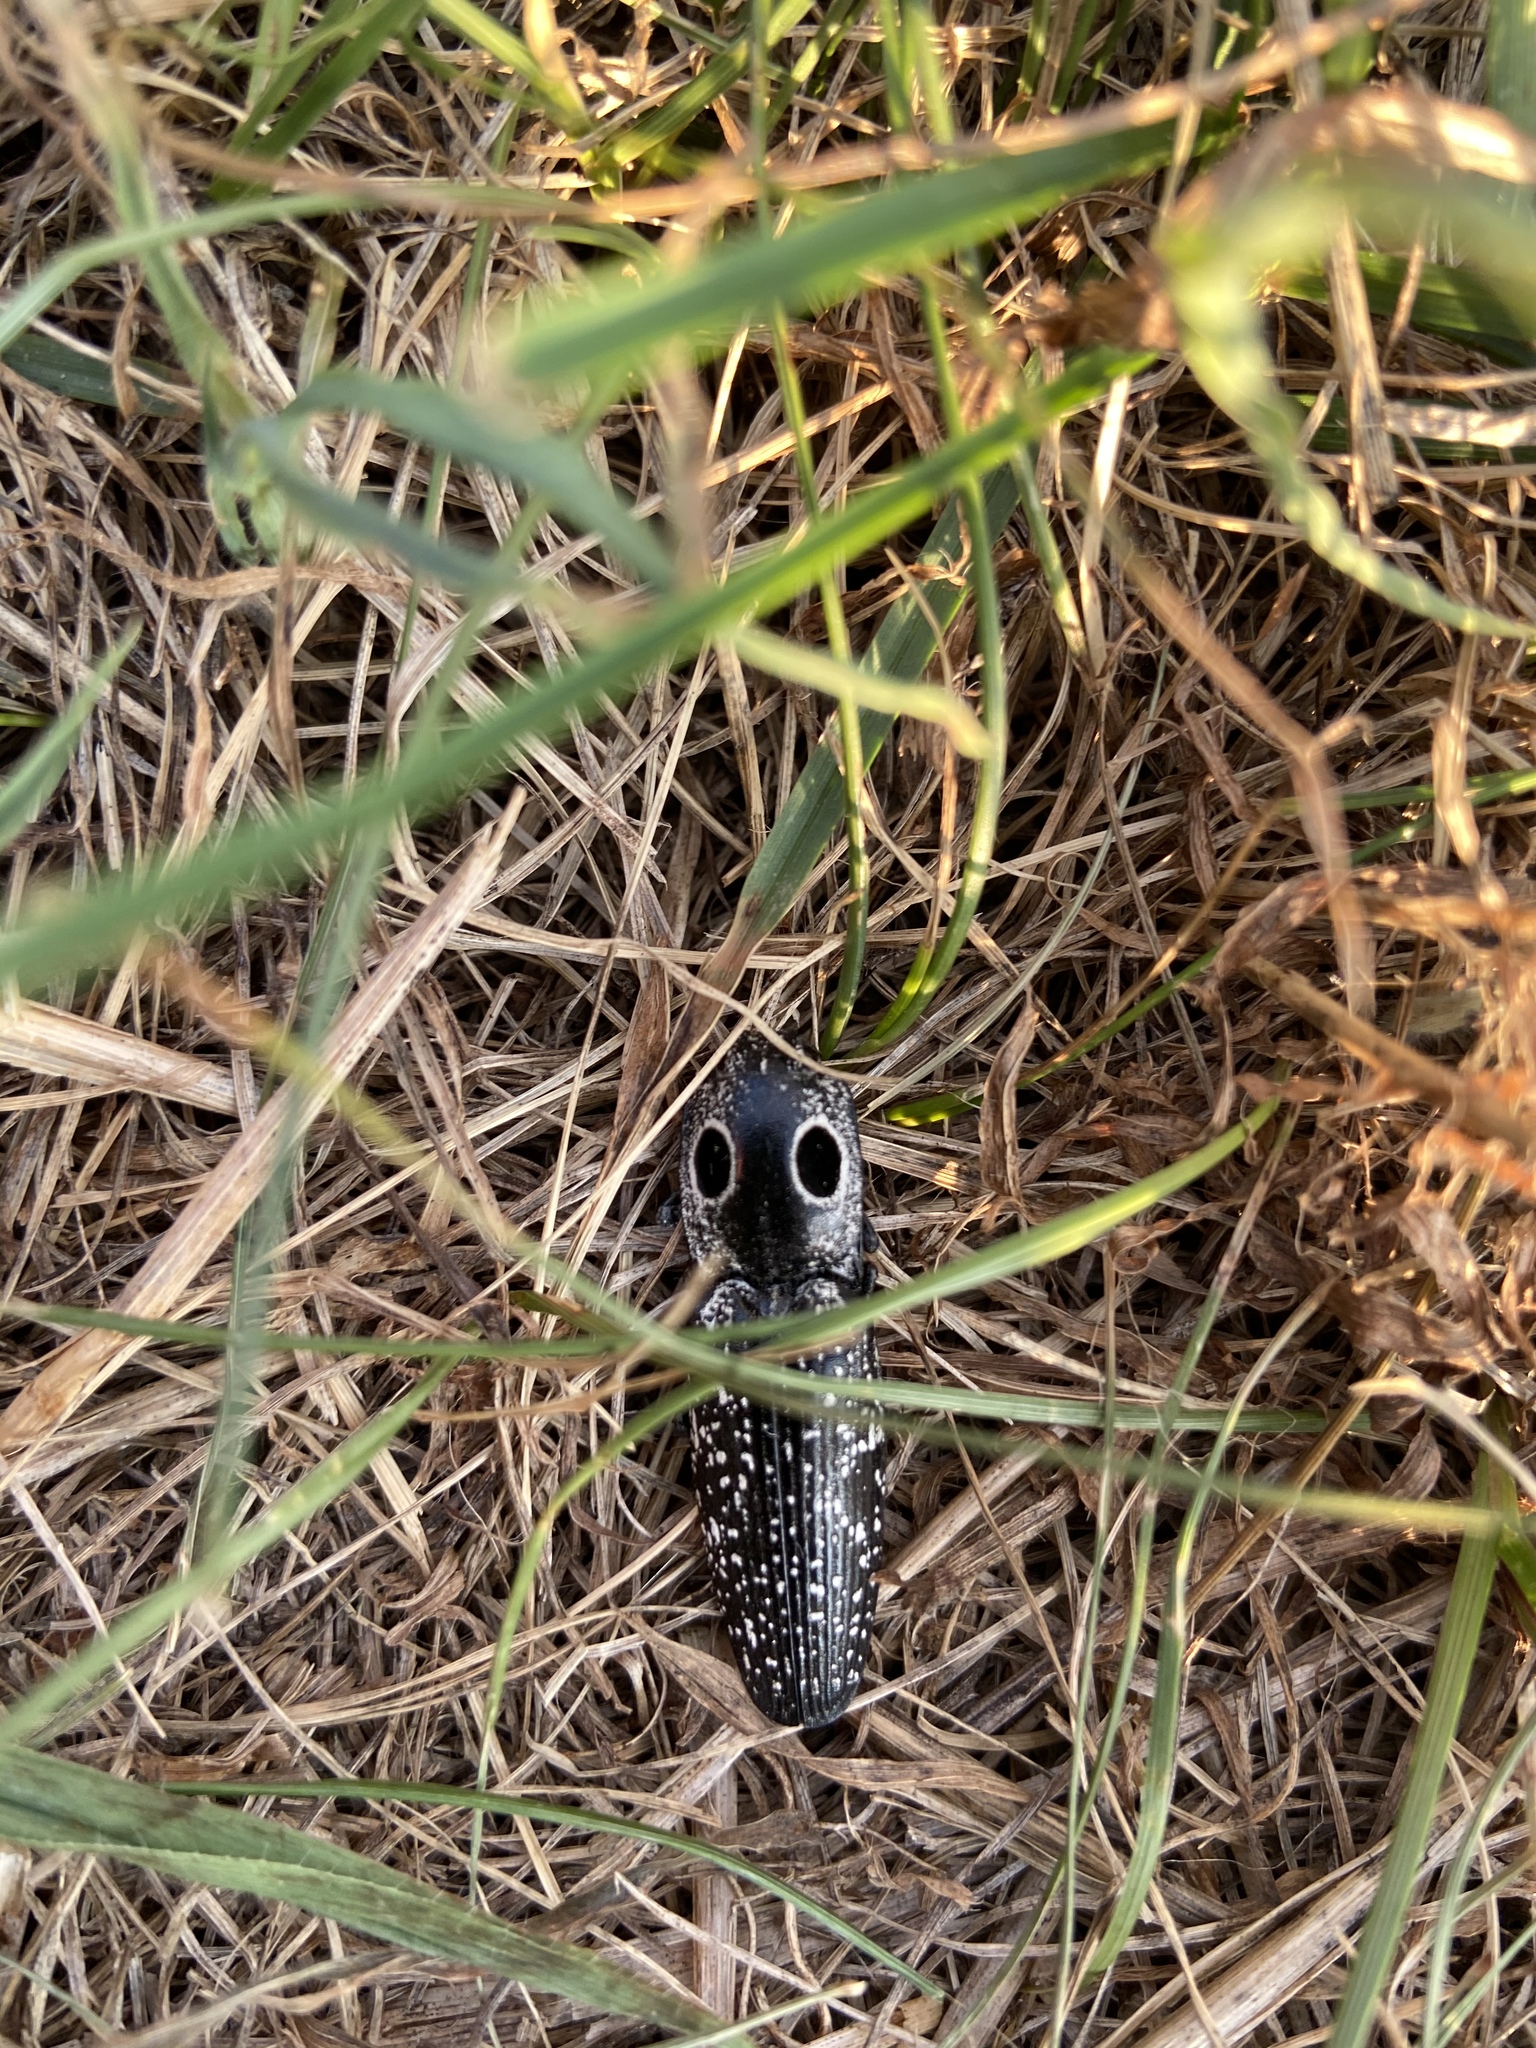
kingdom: Animalia
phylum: Arthropoda
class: Insecta
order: Coleoptera
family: Elateridae
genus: Alaus
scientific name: Alaus oculatus
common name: Eastern eyed click beetle
